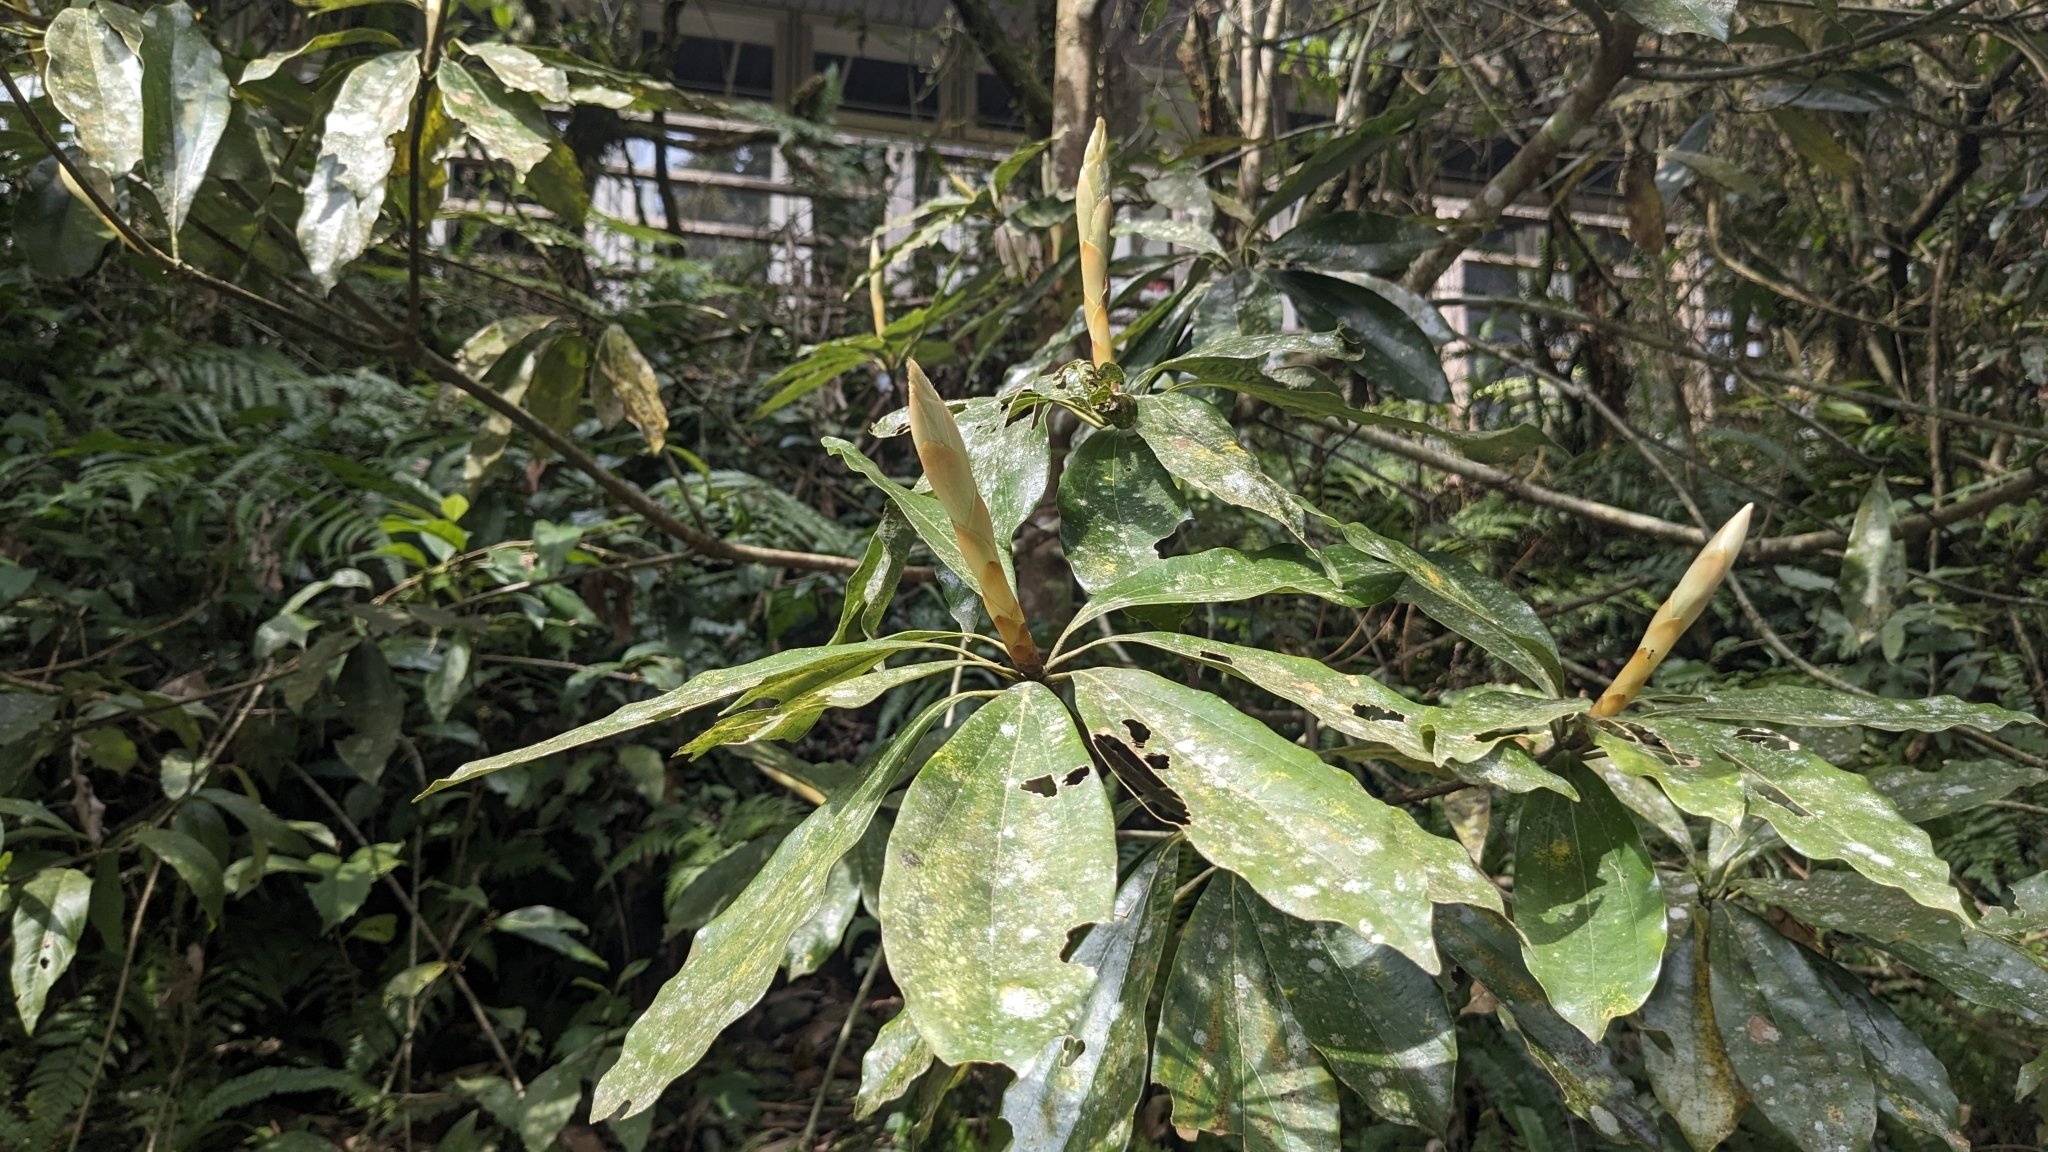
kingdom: Plantae
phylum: Tracheophyta
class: Magnoliopsida
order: Laurales
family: Lauraceae
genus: Neolitsea
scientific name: Neolitsea konishii
